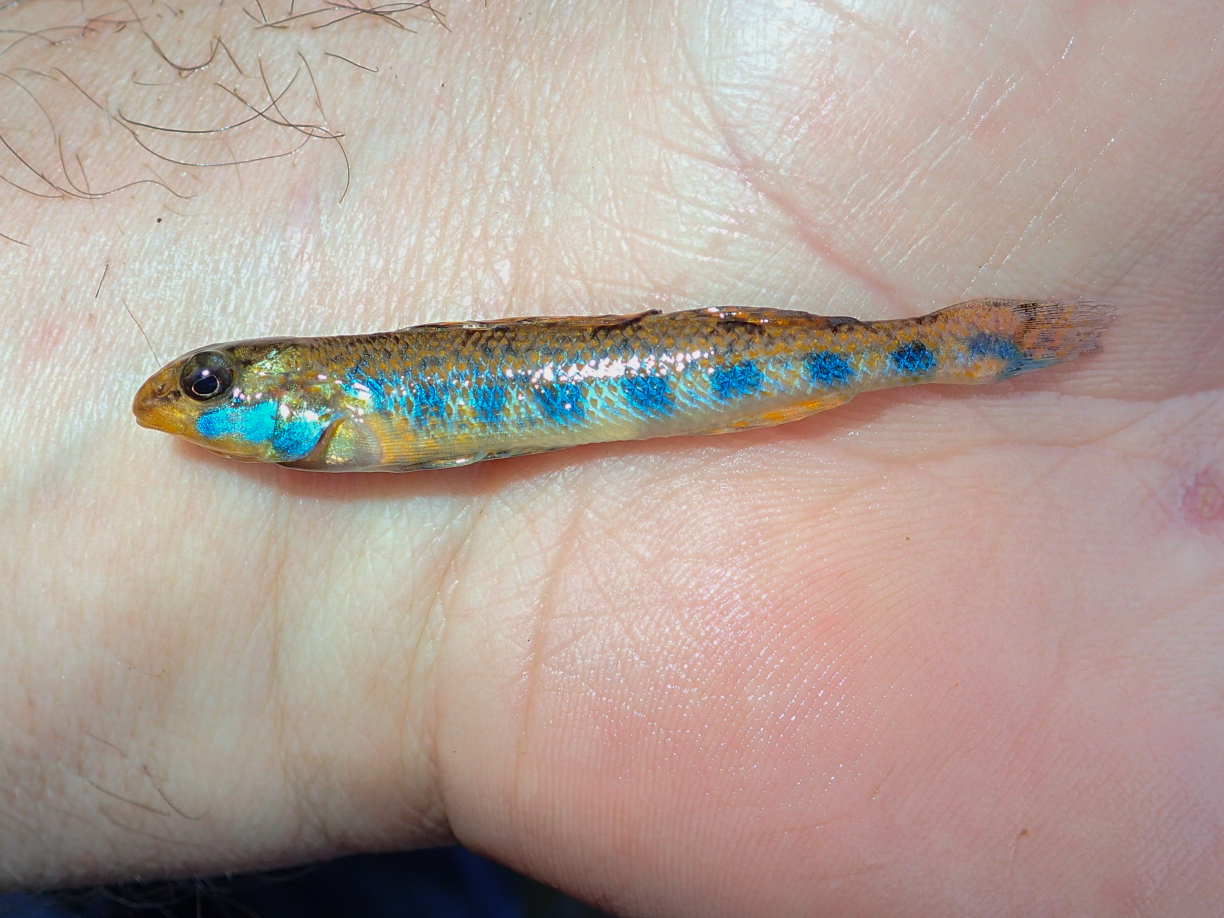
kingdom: Animalia
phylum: Chordata
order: Perciformes
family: Percidae
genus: Etheostoma
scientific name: Etheostoma jimmycarter
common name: Bluegrass darter
